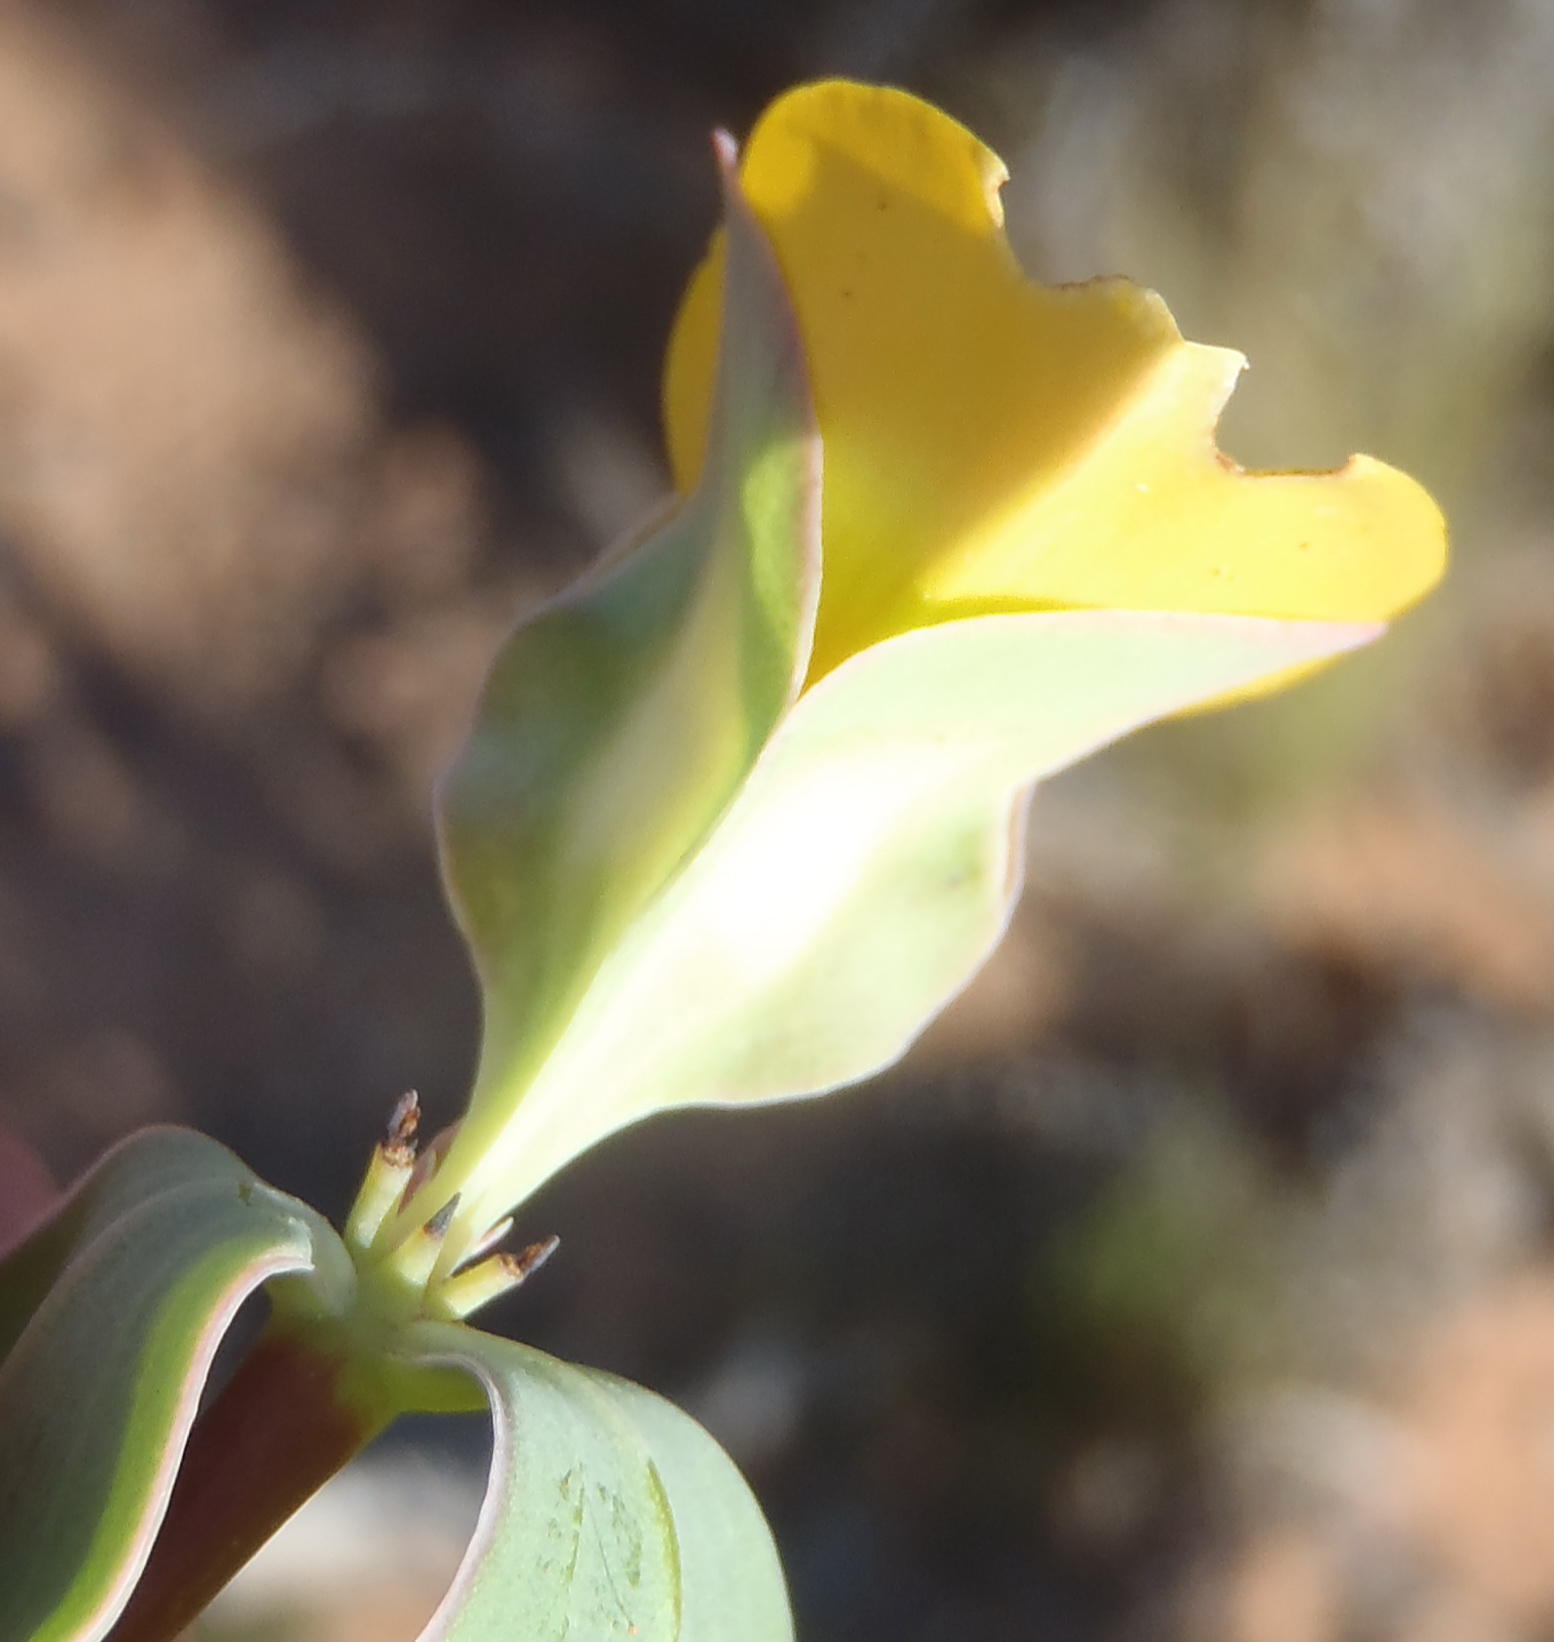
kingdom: Plantae
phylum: Tracheophyta
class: Magnoliopsida
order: Fabales
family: Fabaceae
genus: Rafnia
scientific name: Rafnia alata
